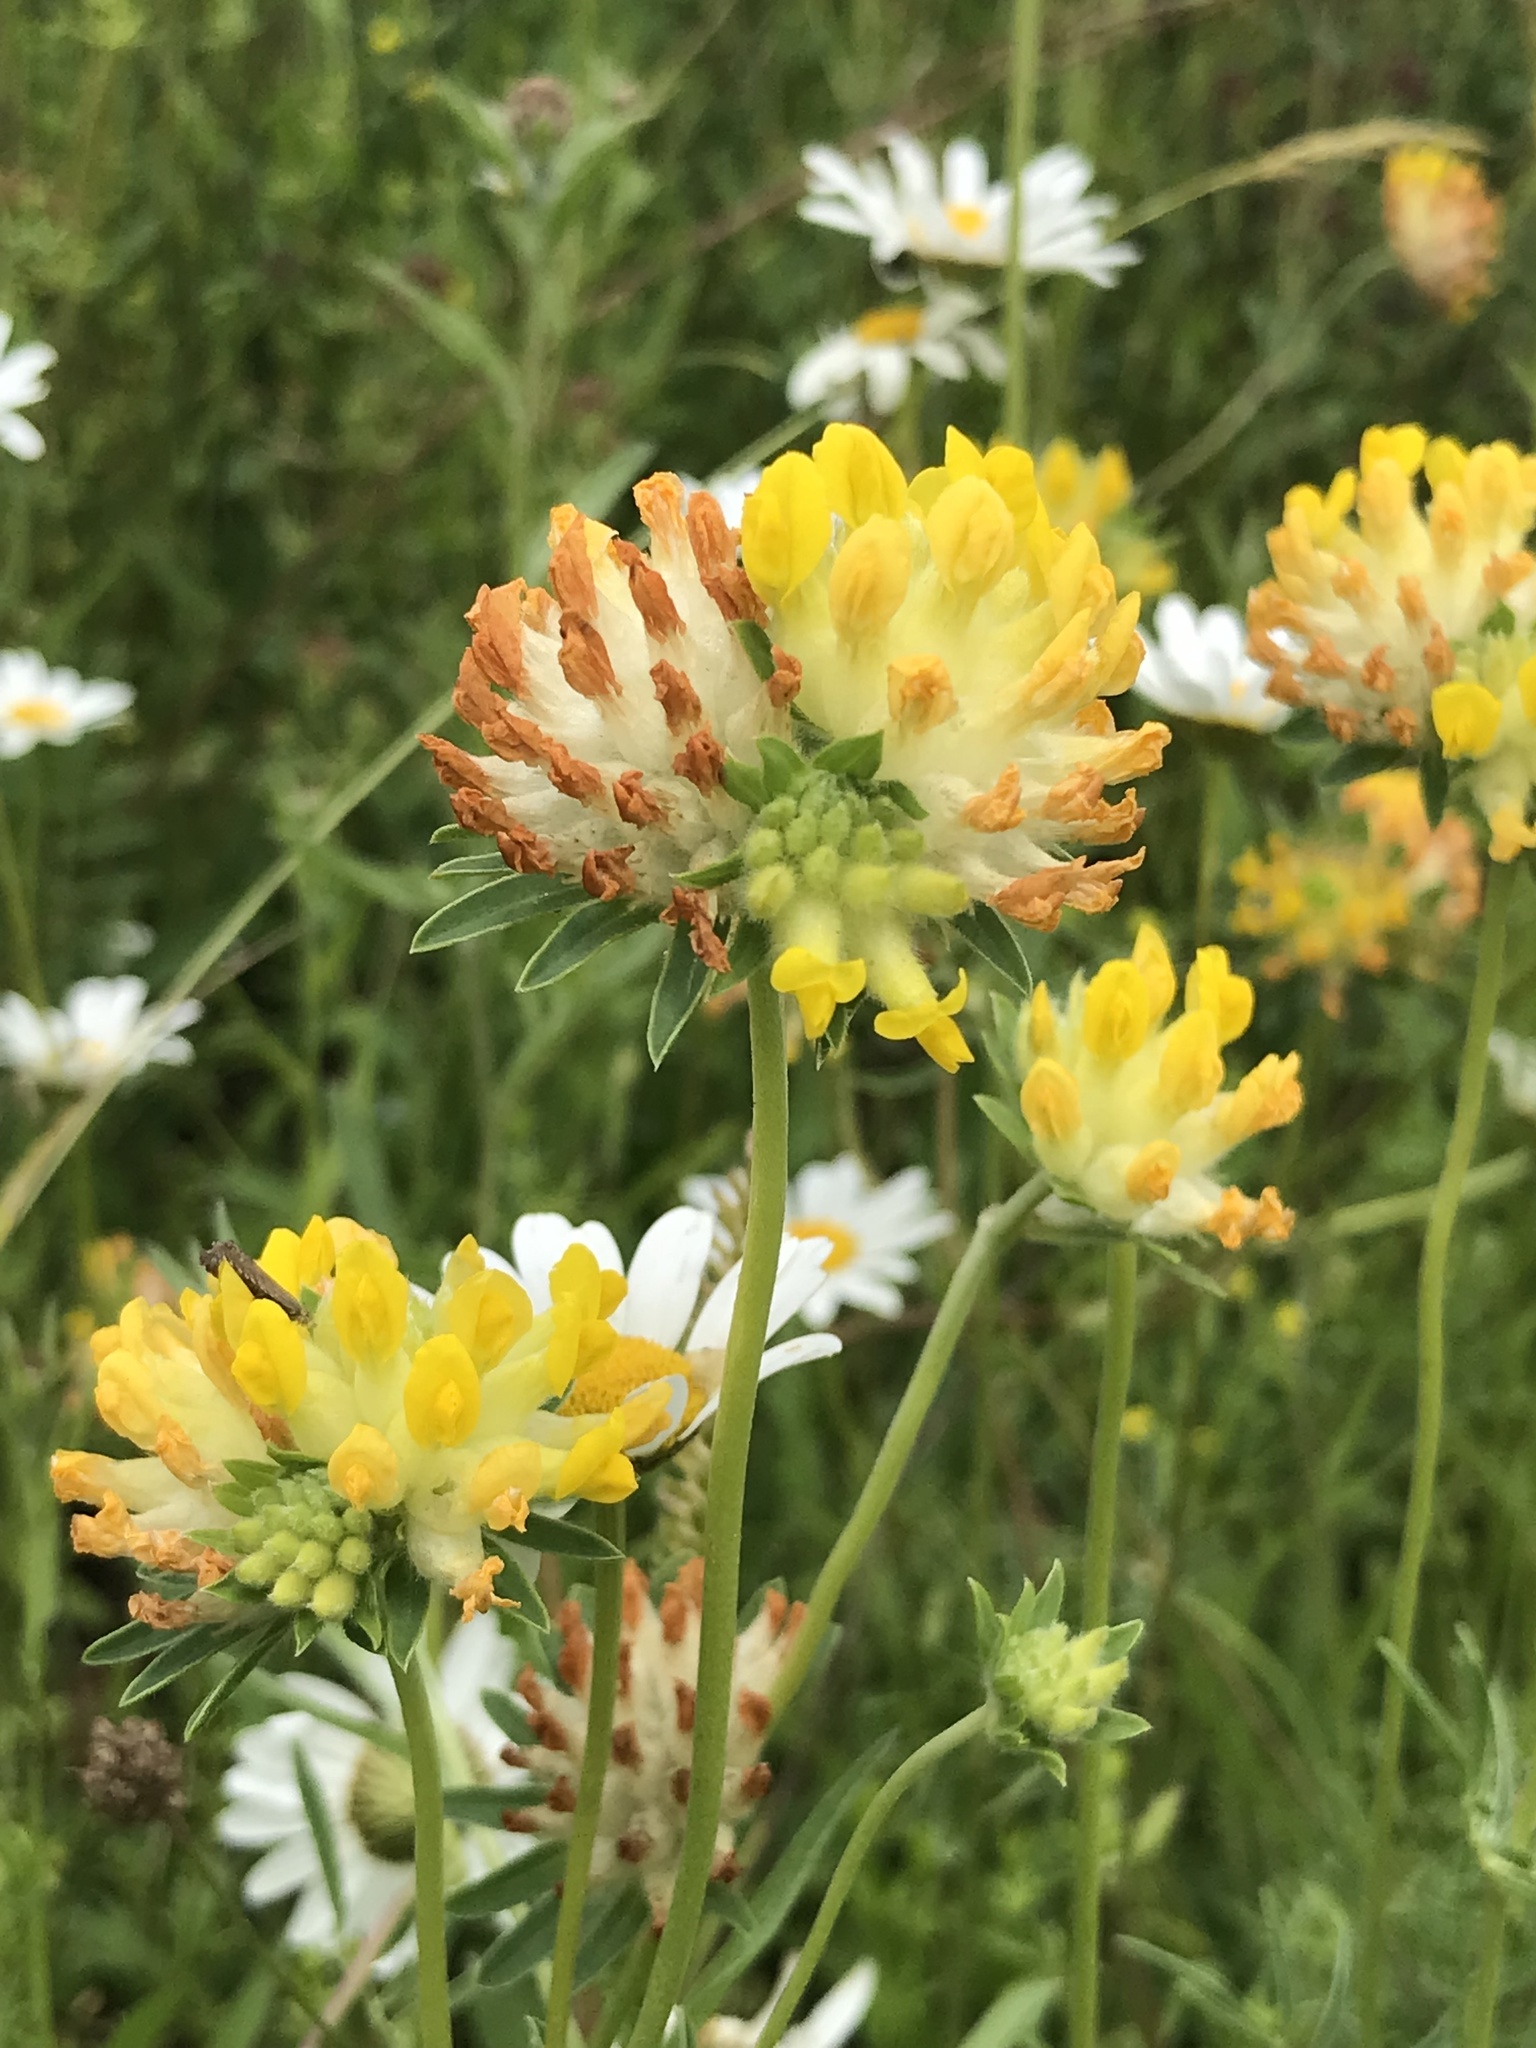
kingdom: Plantae
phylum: Tracheophyta
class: Magnoliopsida
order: Fabales
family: Fabaceae
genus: Anthyllis
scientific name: Anthyllis vulneraria
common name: Kidney vetch
